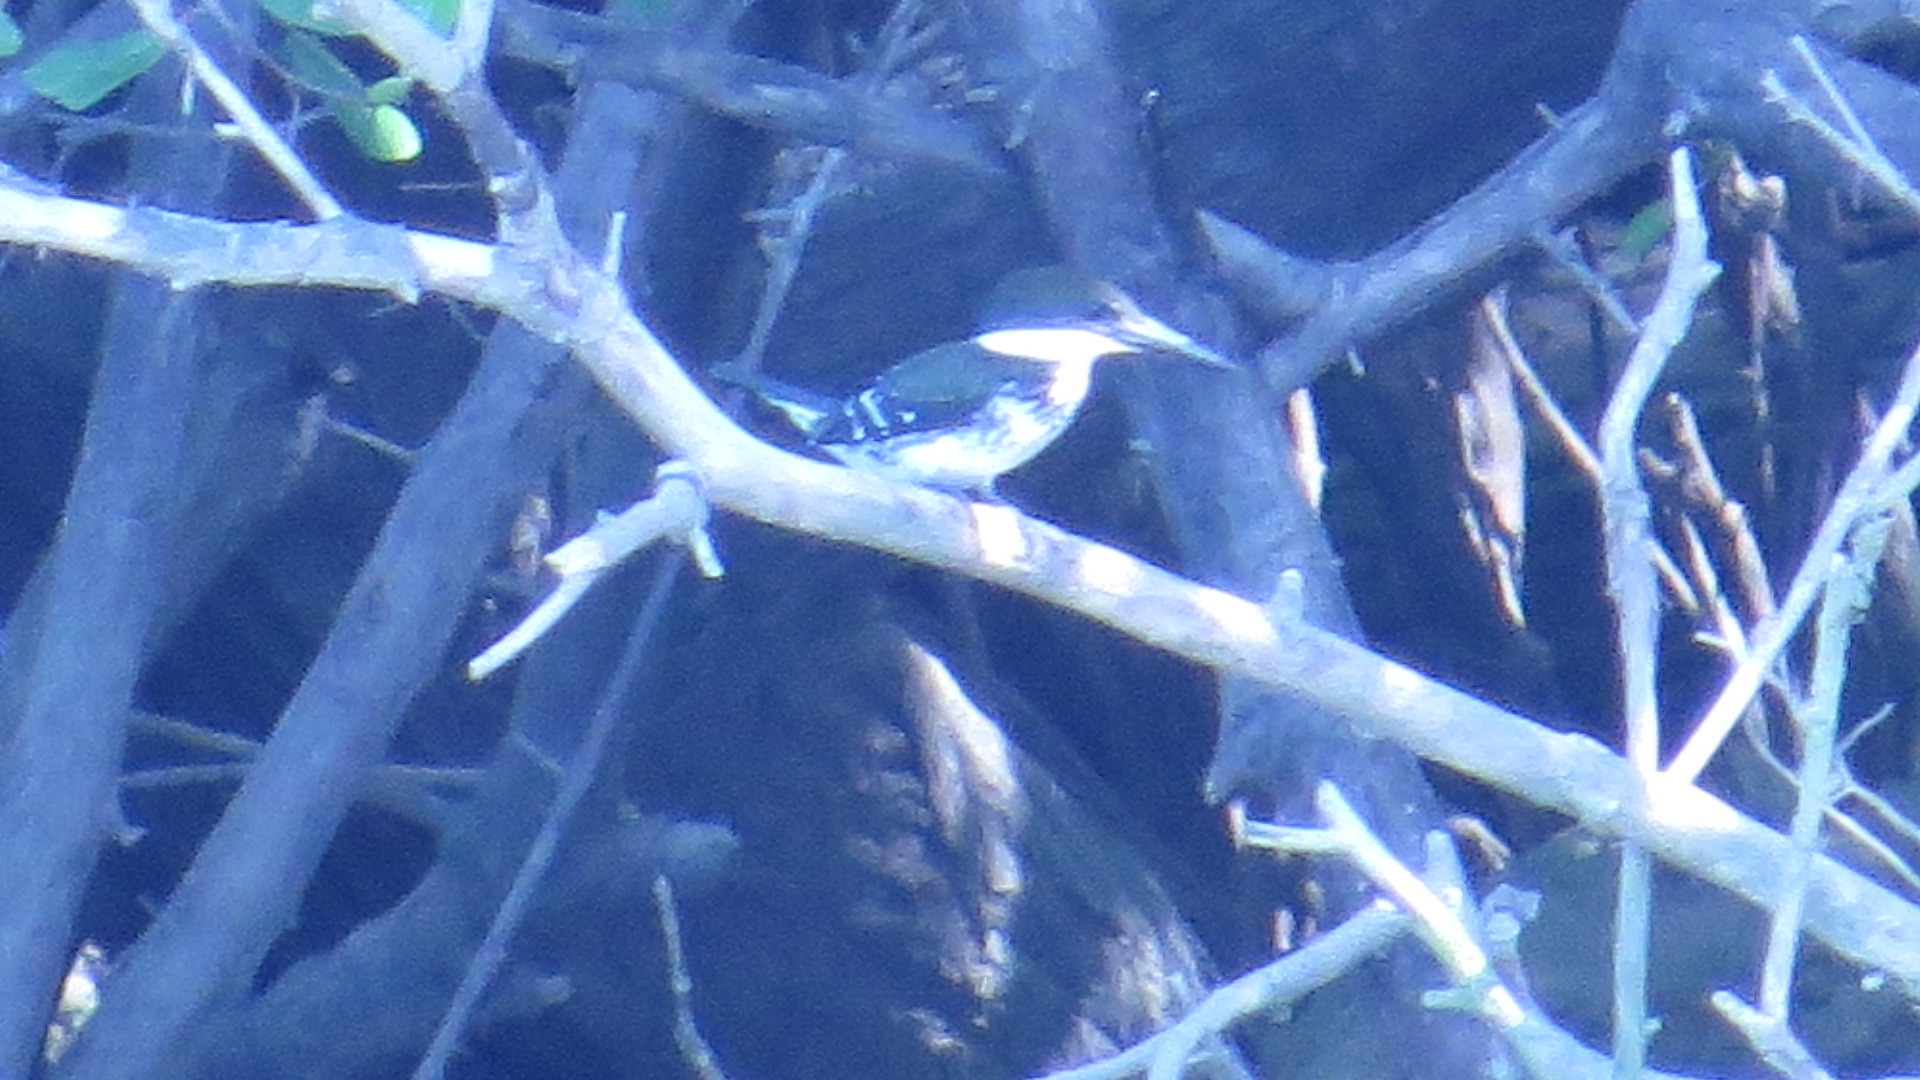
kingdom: Animalia
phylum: Chordata
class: Aves
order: Coraciiformes
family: Alcedinidae
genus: Chloroceryle
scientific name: Chloroceryle americana
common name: Green kingfisher
